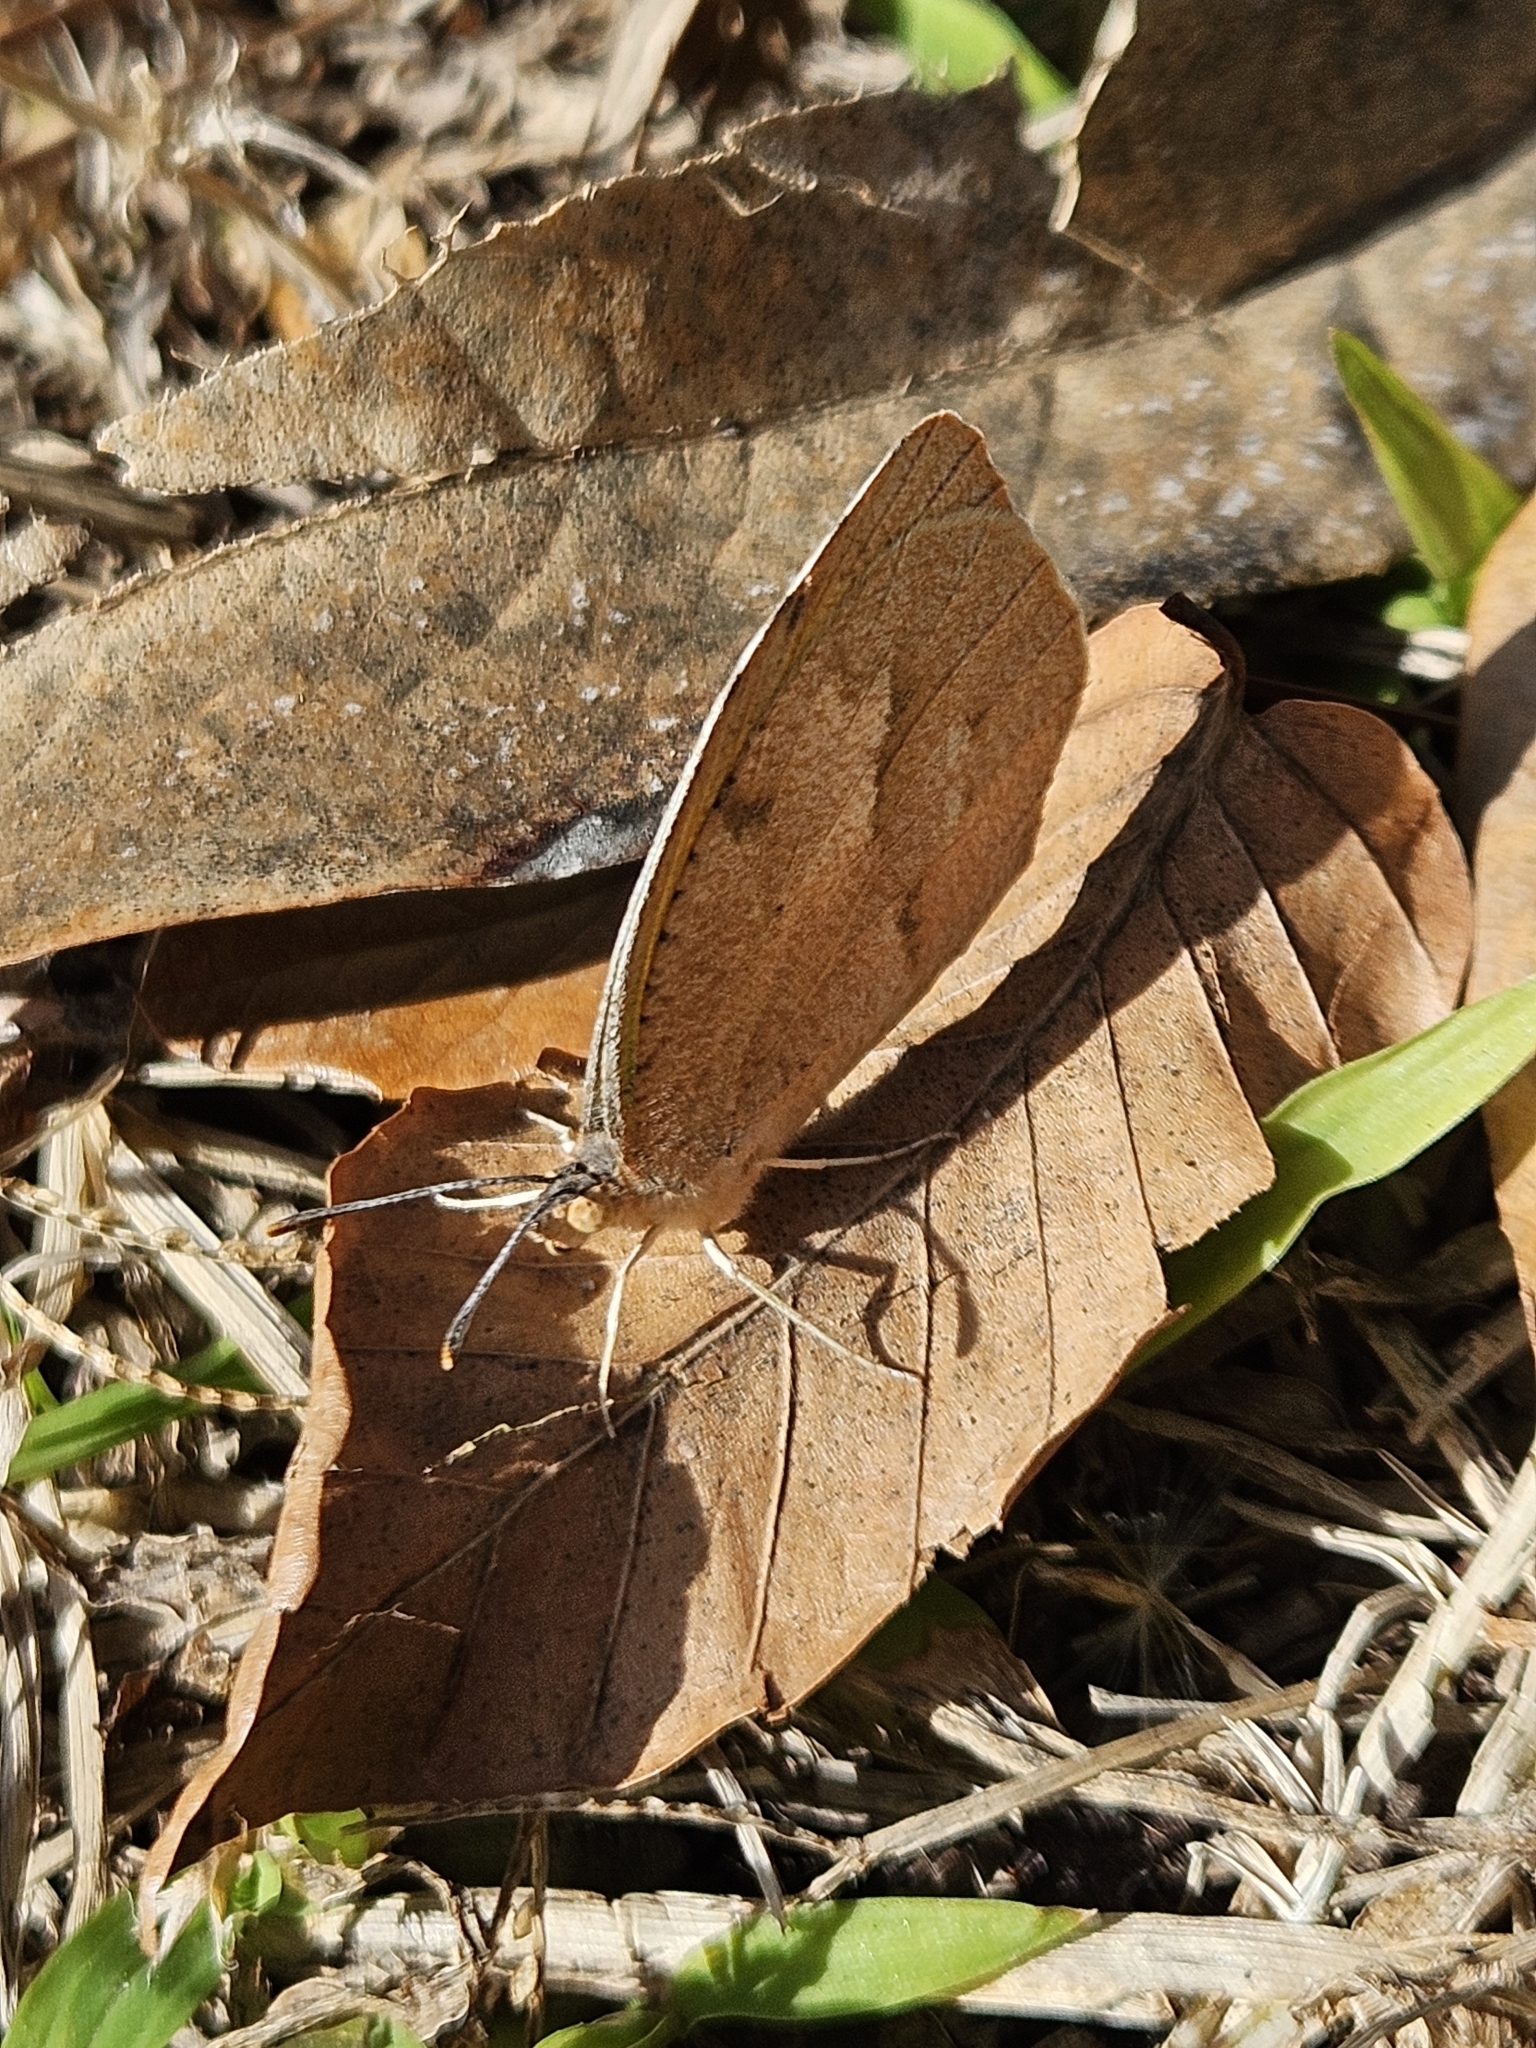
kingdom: Animalia
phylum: Arthropoda
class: Insecta
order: Lepidoptera
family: Pieridae
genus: Abaeis
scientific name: Abaeis nicippe
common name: Sleepy orange
